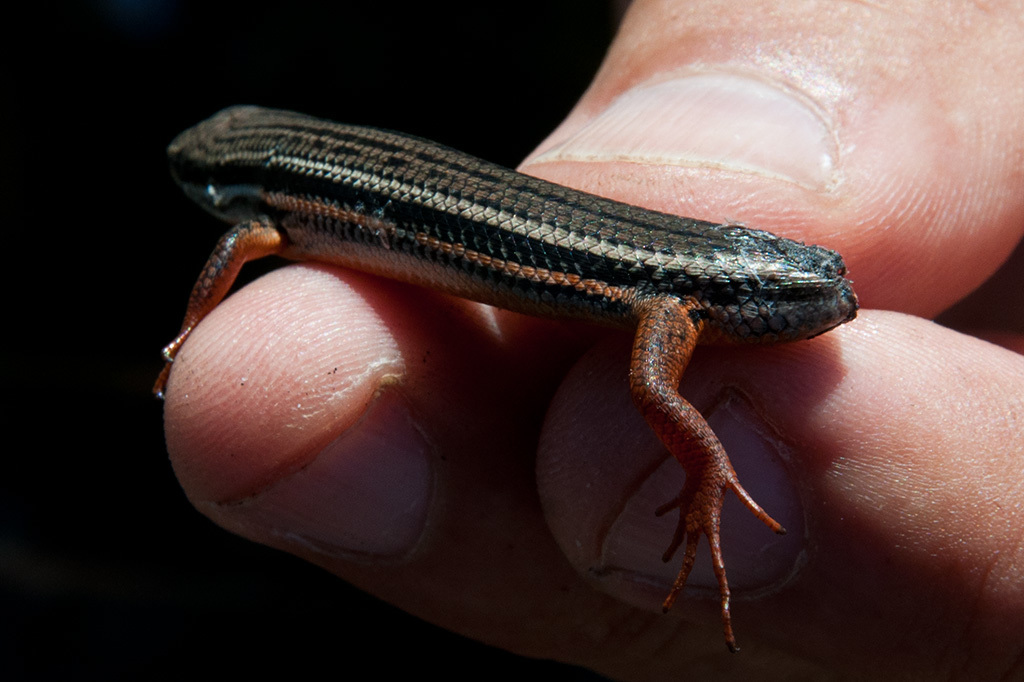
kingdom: Animalia
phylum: Chordata
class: Squamata
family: Scincidae
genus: Trachylepis
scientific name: Trachylepis homalocephala
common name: Red-sided skink
